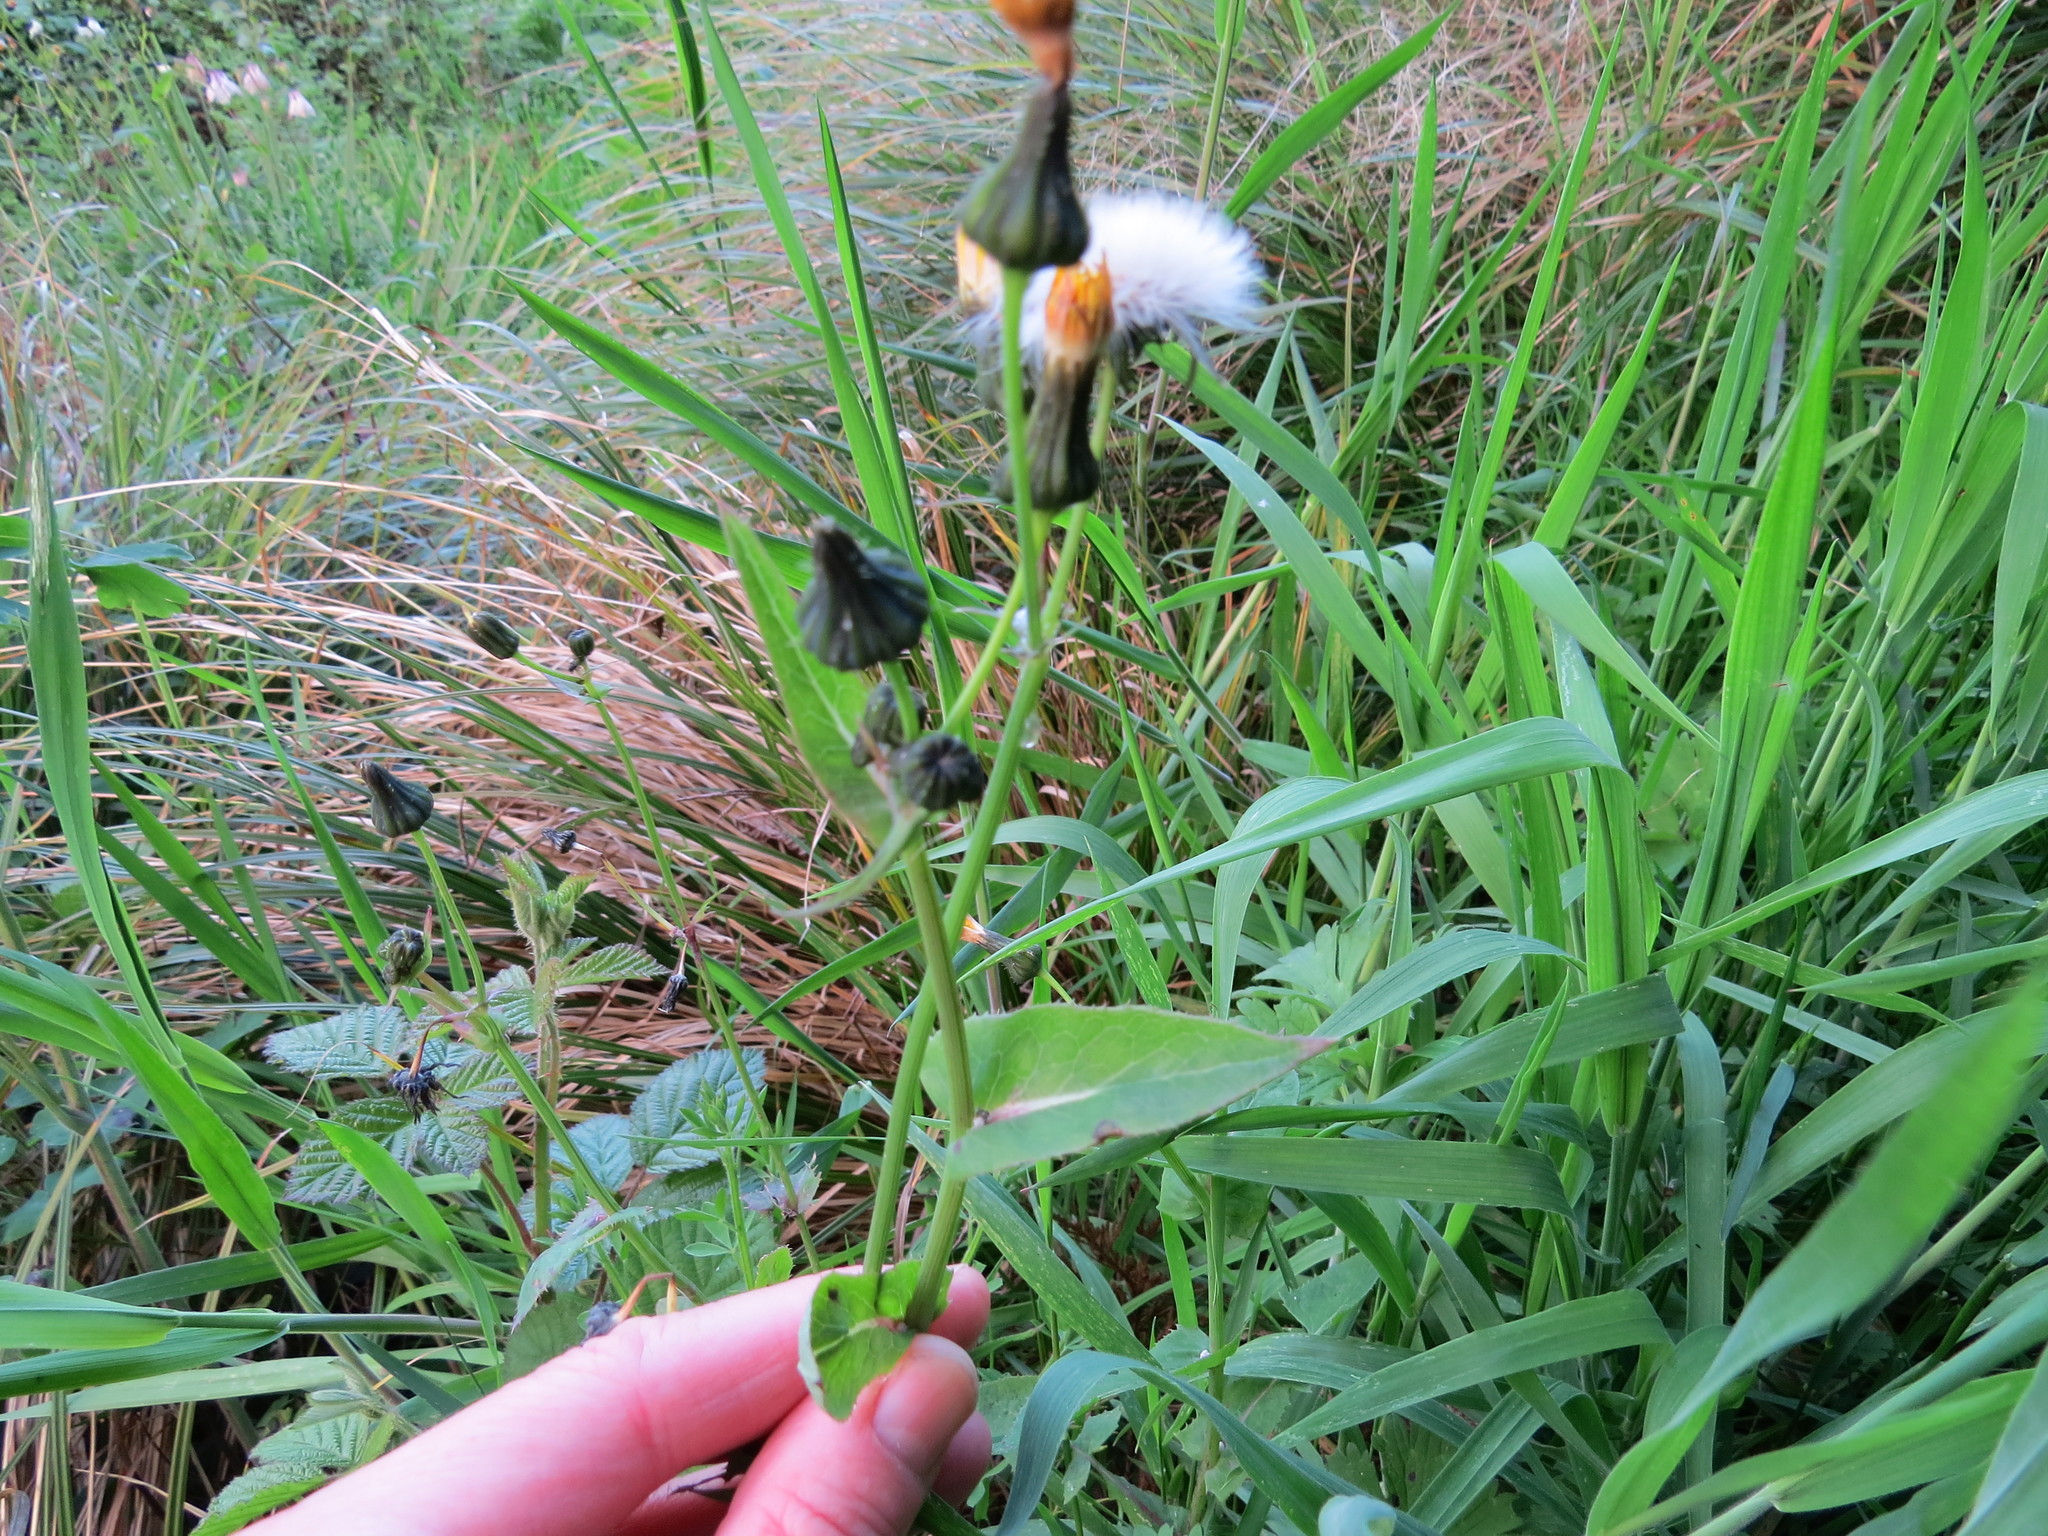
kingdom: Plantae
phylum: Tracheophyta
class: Magnoliopsida
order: Asterales
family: Asteraceae
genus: Sonchus
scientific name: Sonchus oleraceus
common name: Common sowthistle
